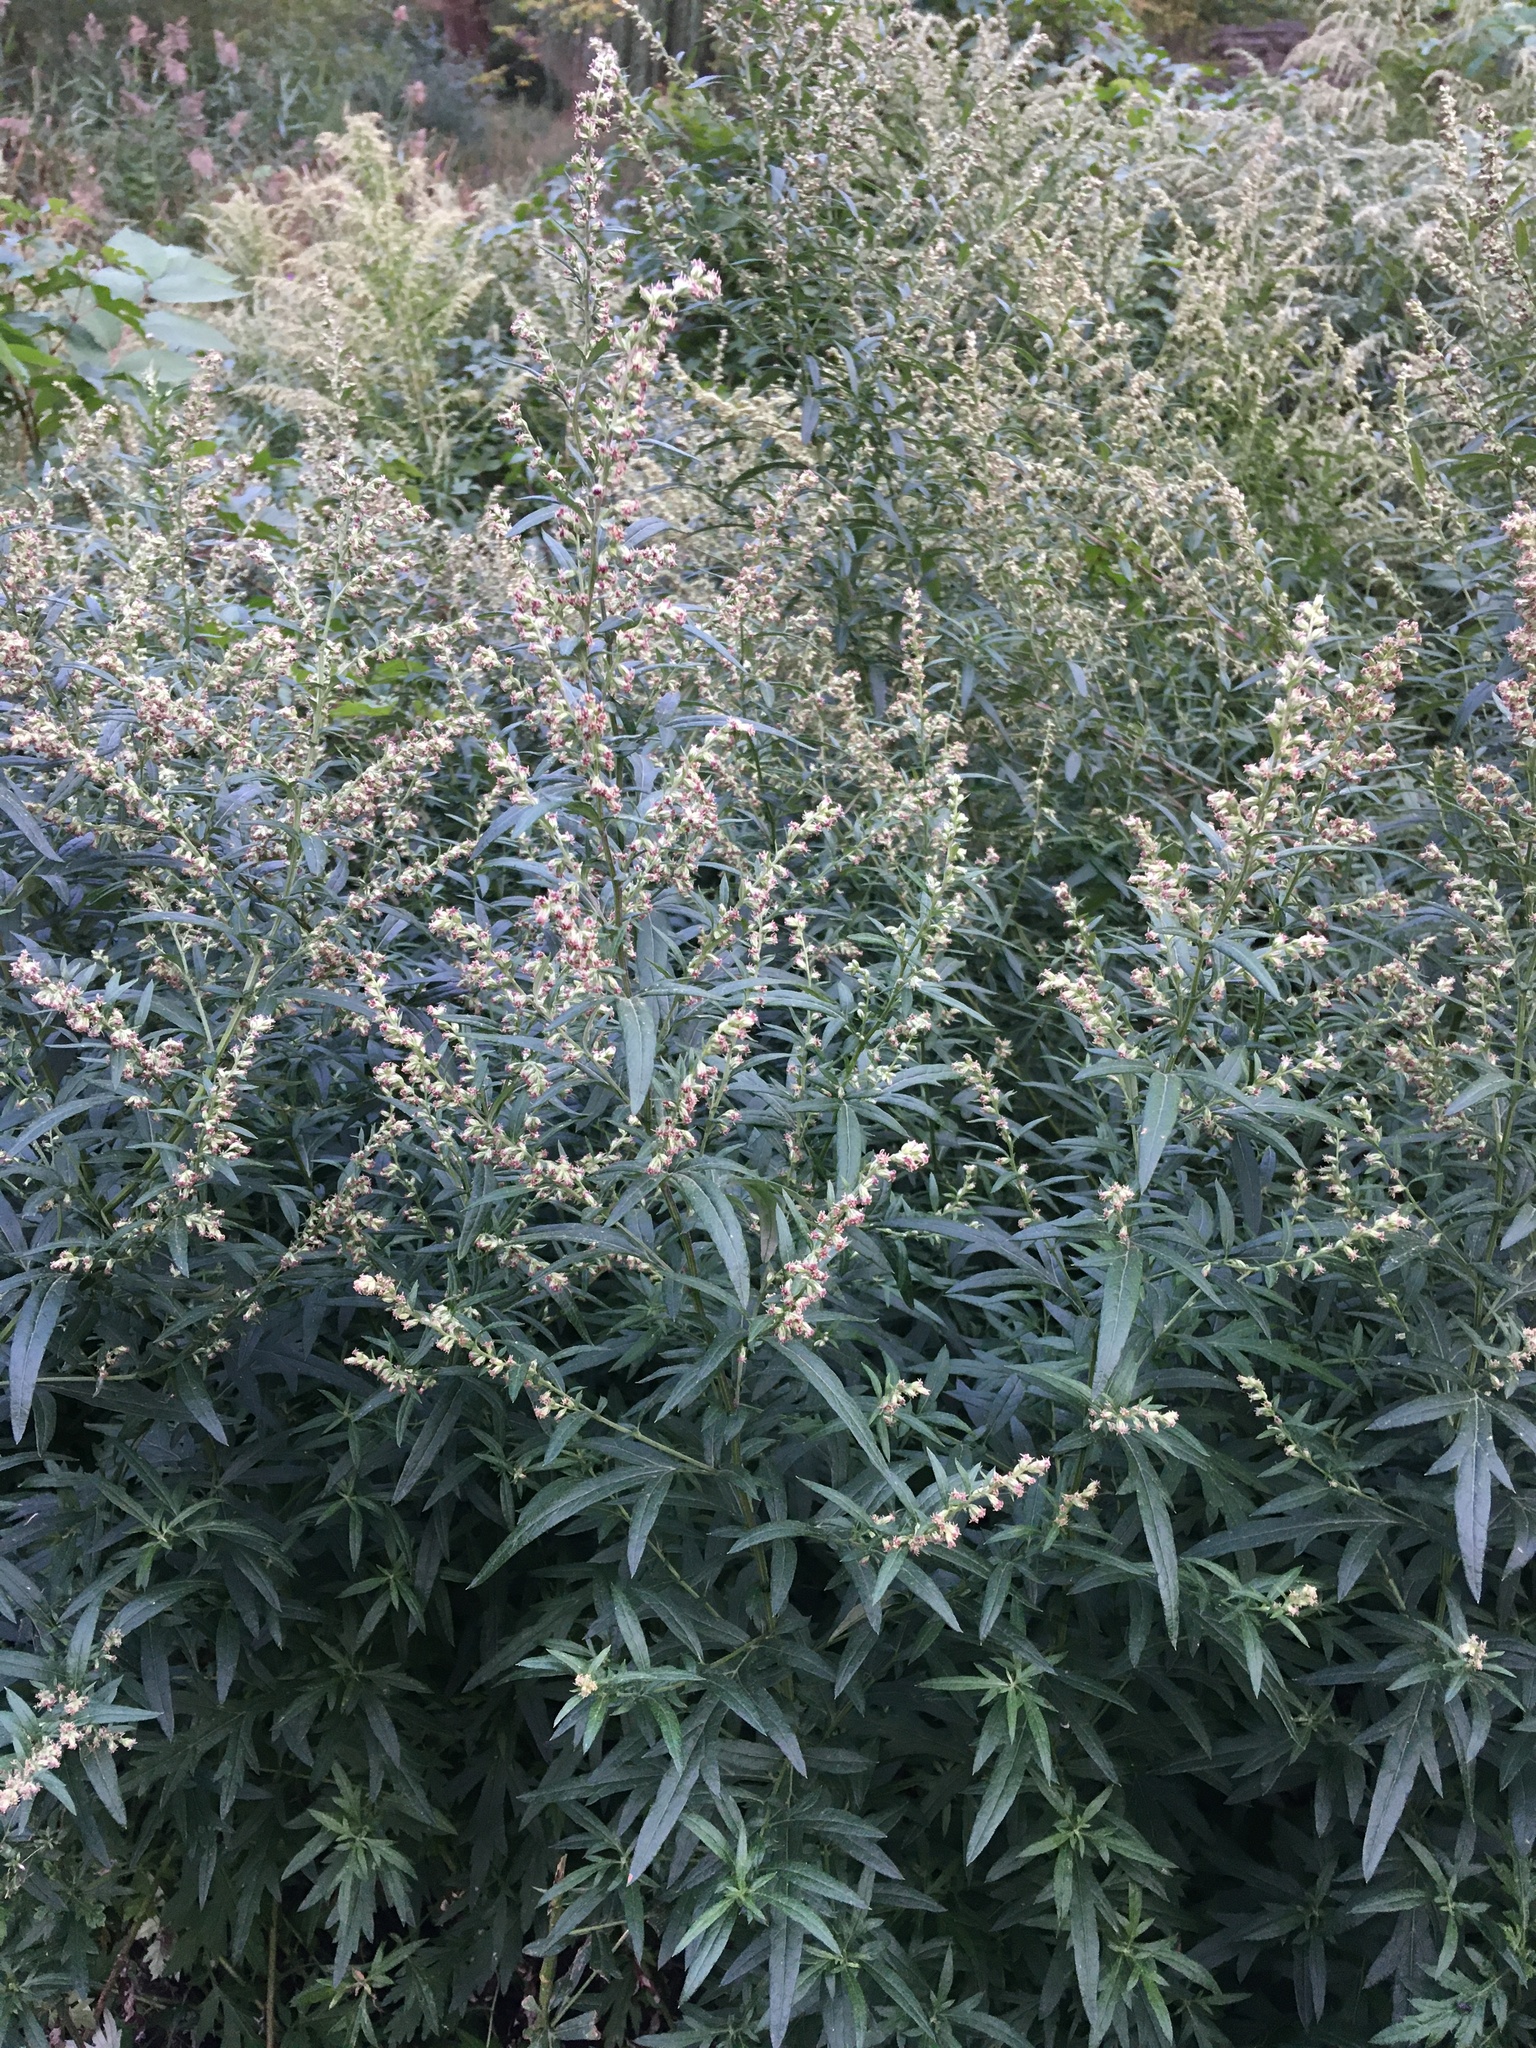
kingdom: Plantae
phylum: Tracheophyta
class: Magnoliopsida
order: Asterales
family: Asteraceae
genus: Artemisia
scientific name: Artemisia vulgaris
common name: Mugwort
